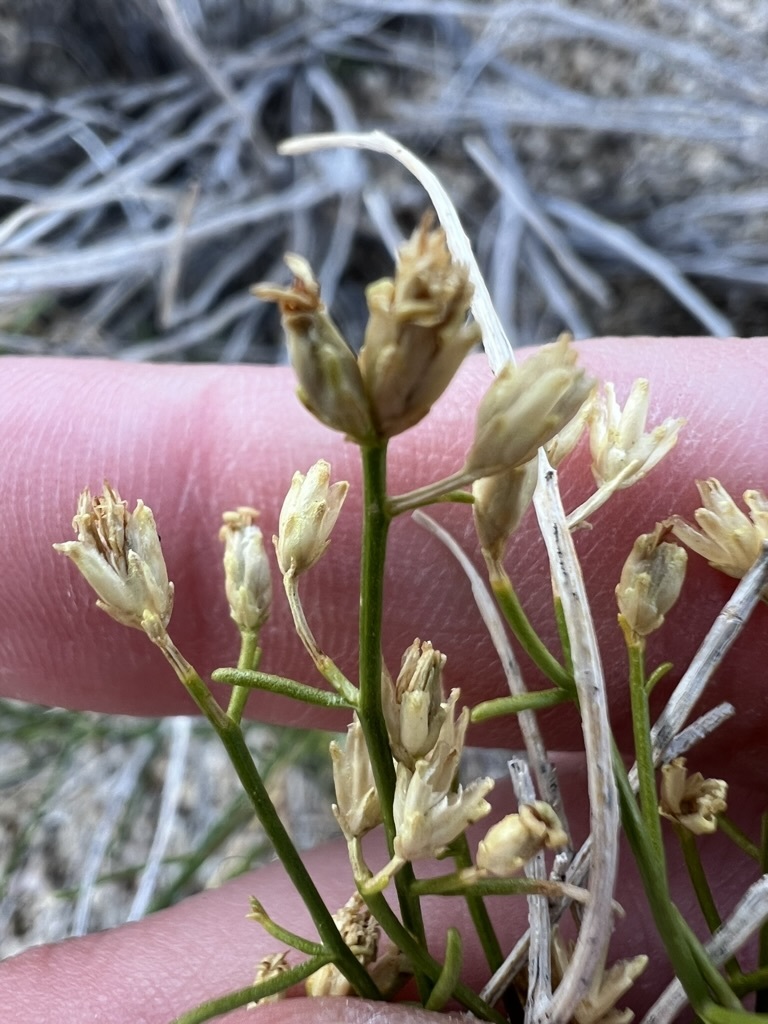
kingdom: Plantae
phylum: Tracheophyta
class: Magnoliopsida
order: Asterales
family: Asteraceae
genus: Gutierrezia
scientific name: Gutierrezia sarothrae
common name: Broom snakeweed
